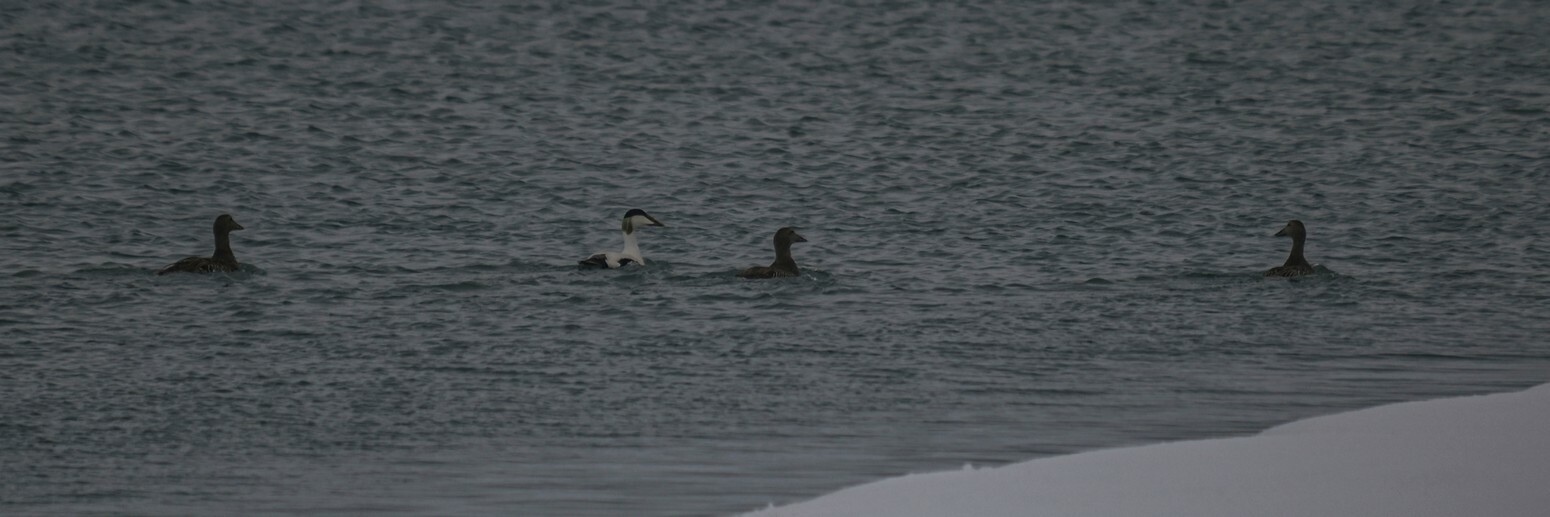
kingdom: Animalia
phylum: Chordata
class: Aves
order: Anseriformes
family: Anatidae
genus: Somateria
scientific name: Somateria mollissima
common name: Common eider
